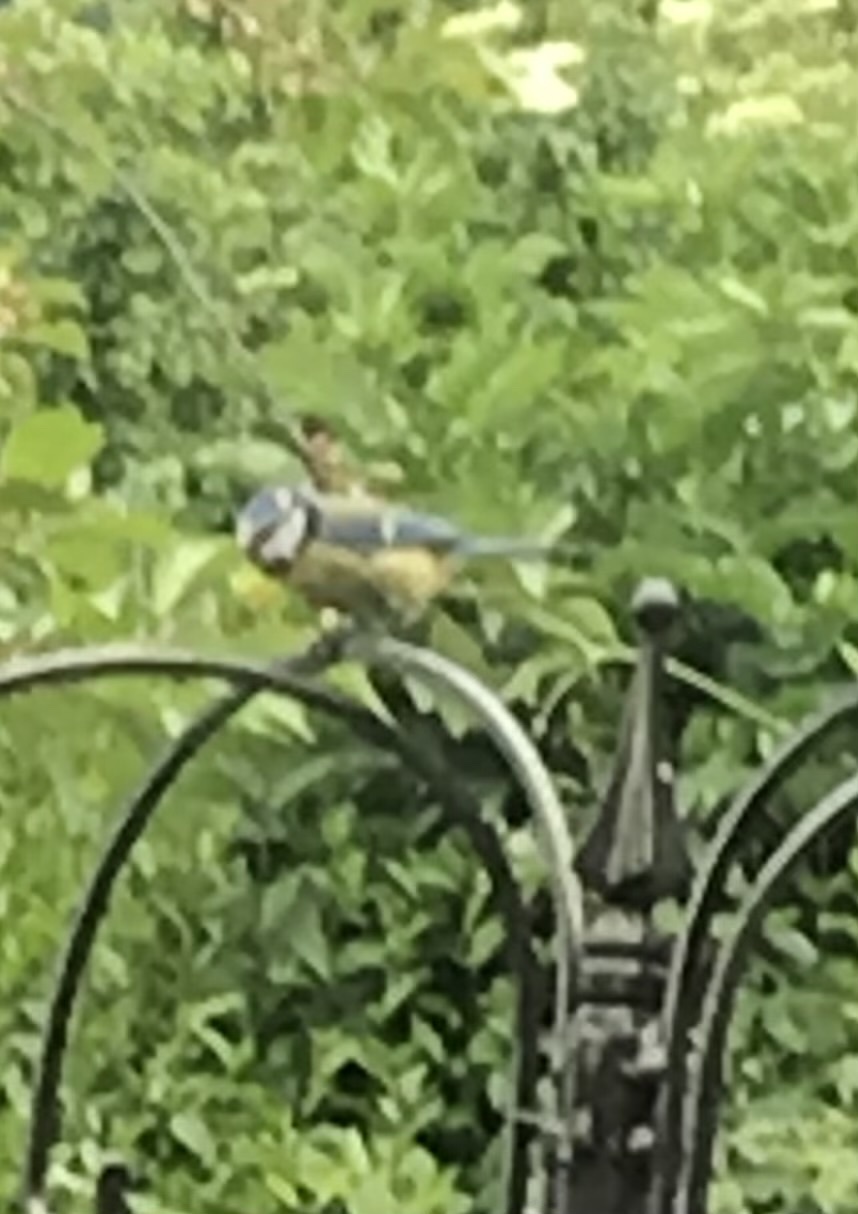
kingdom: Animalia
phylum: Chordata
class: Aves
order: Passeriformes
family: Paridae
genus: Cyanistes
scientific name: Cyanistes caeruleus
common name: Eurasian blue tit
